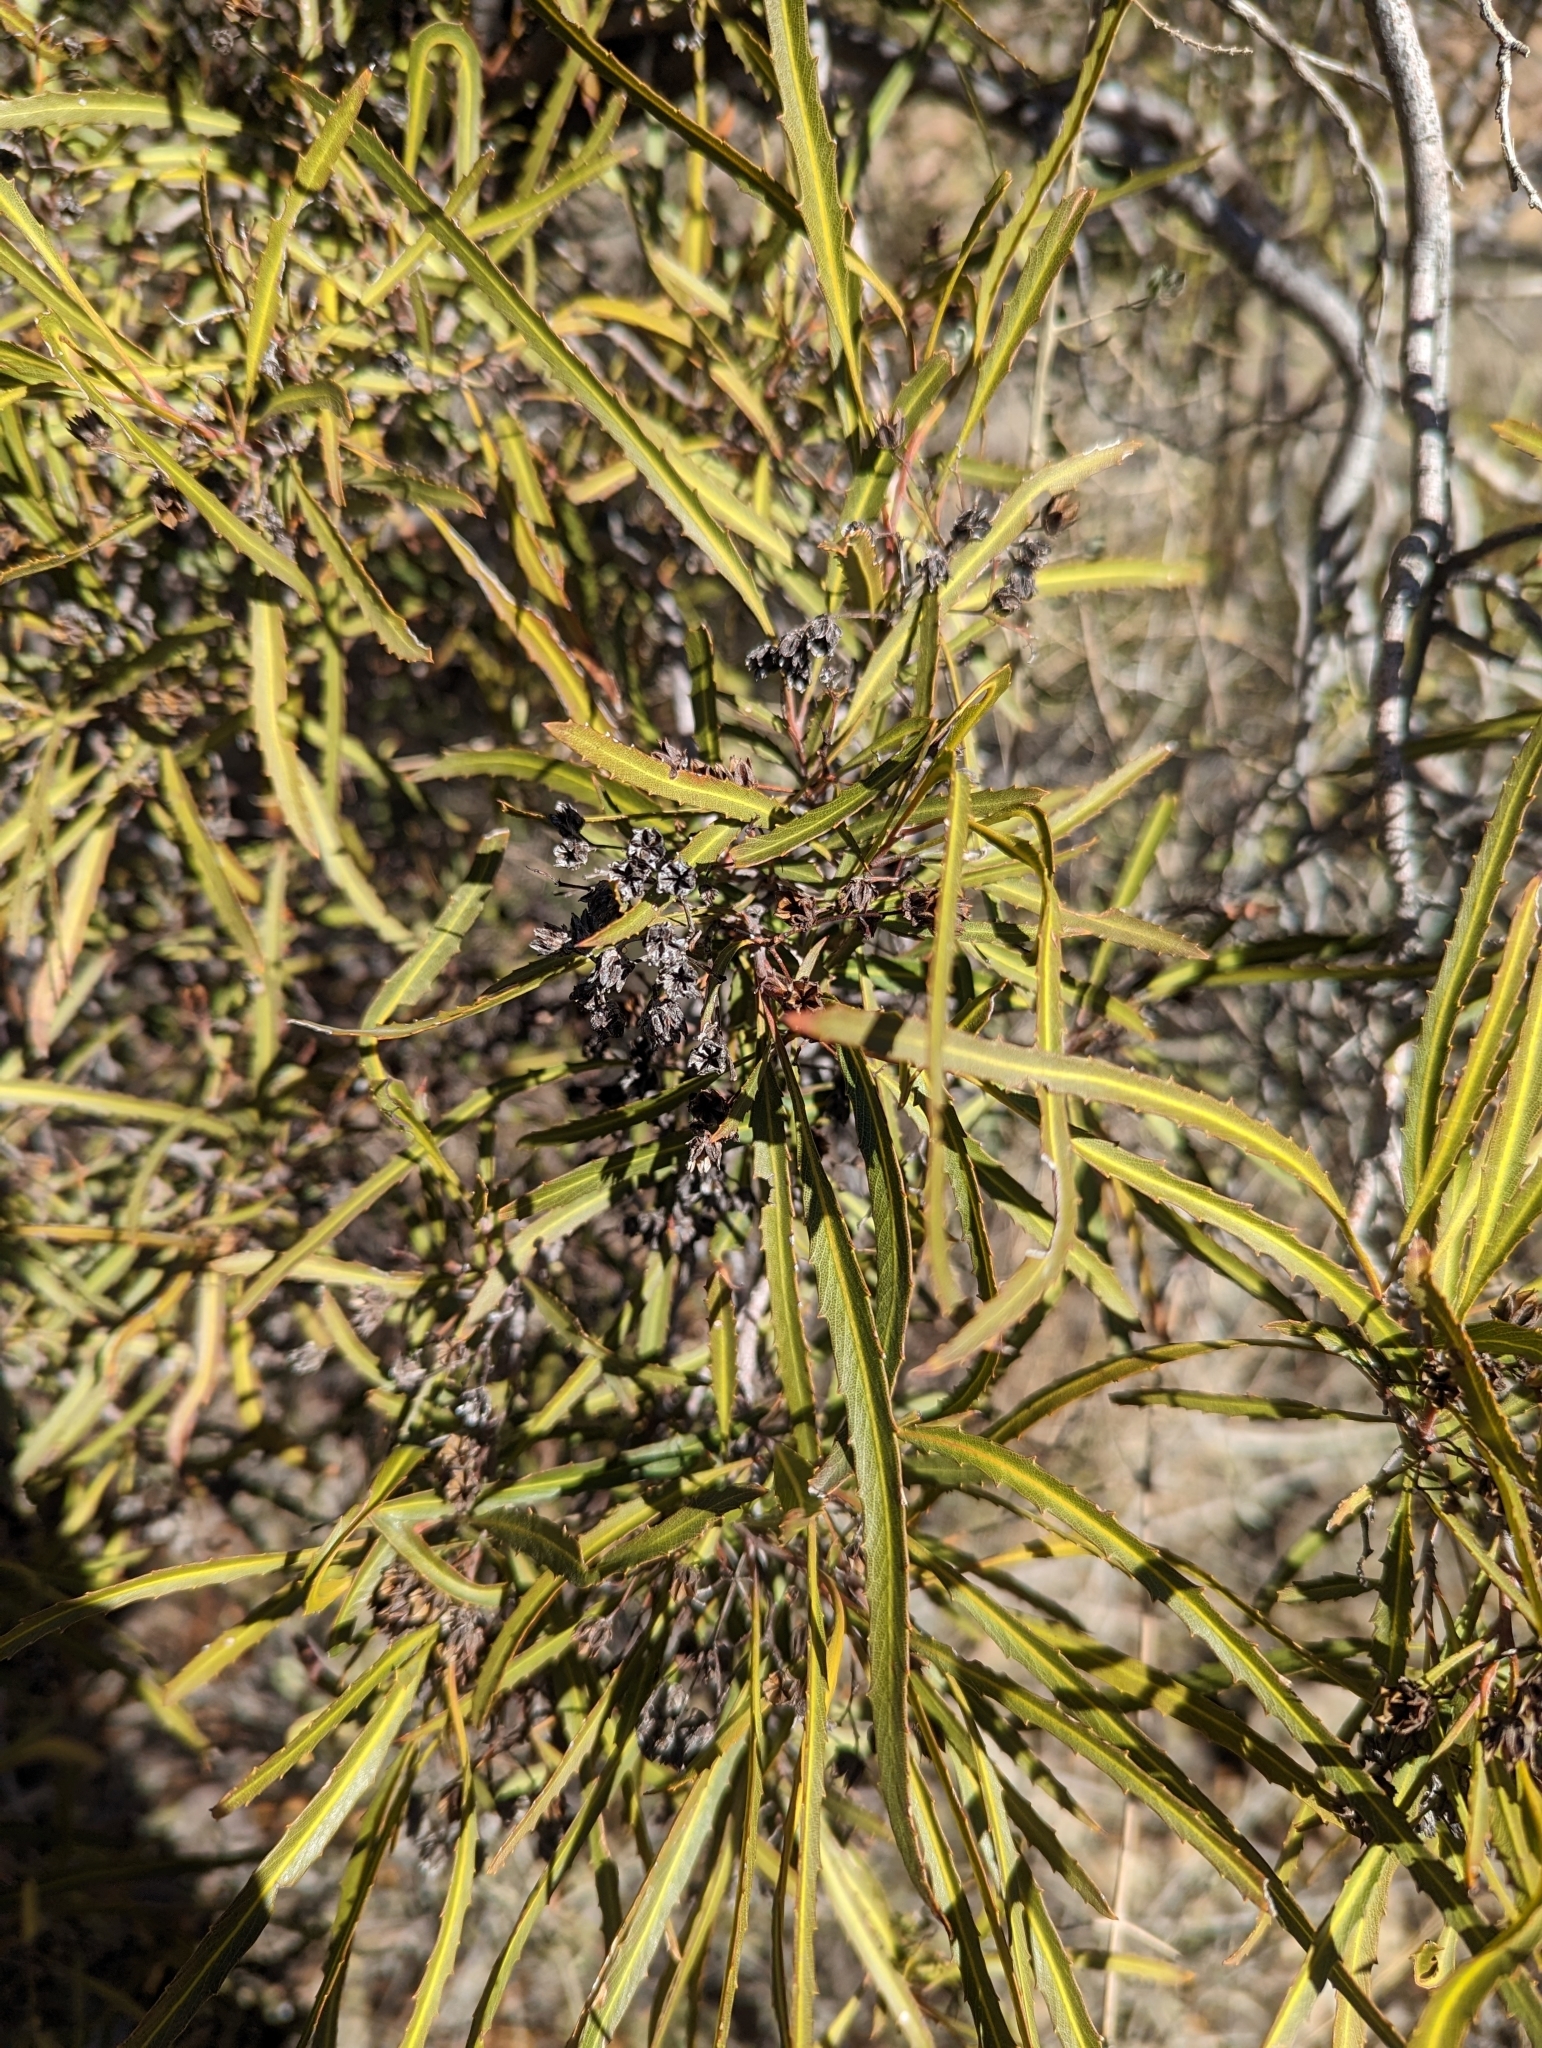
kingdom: Plantae
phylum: Tracheophyta
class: Magnoliopsida
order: Rosales
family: Rosaceae
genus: Vauquelinia
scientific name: Vauquelinia corymbosa
